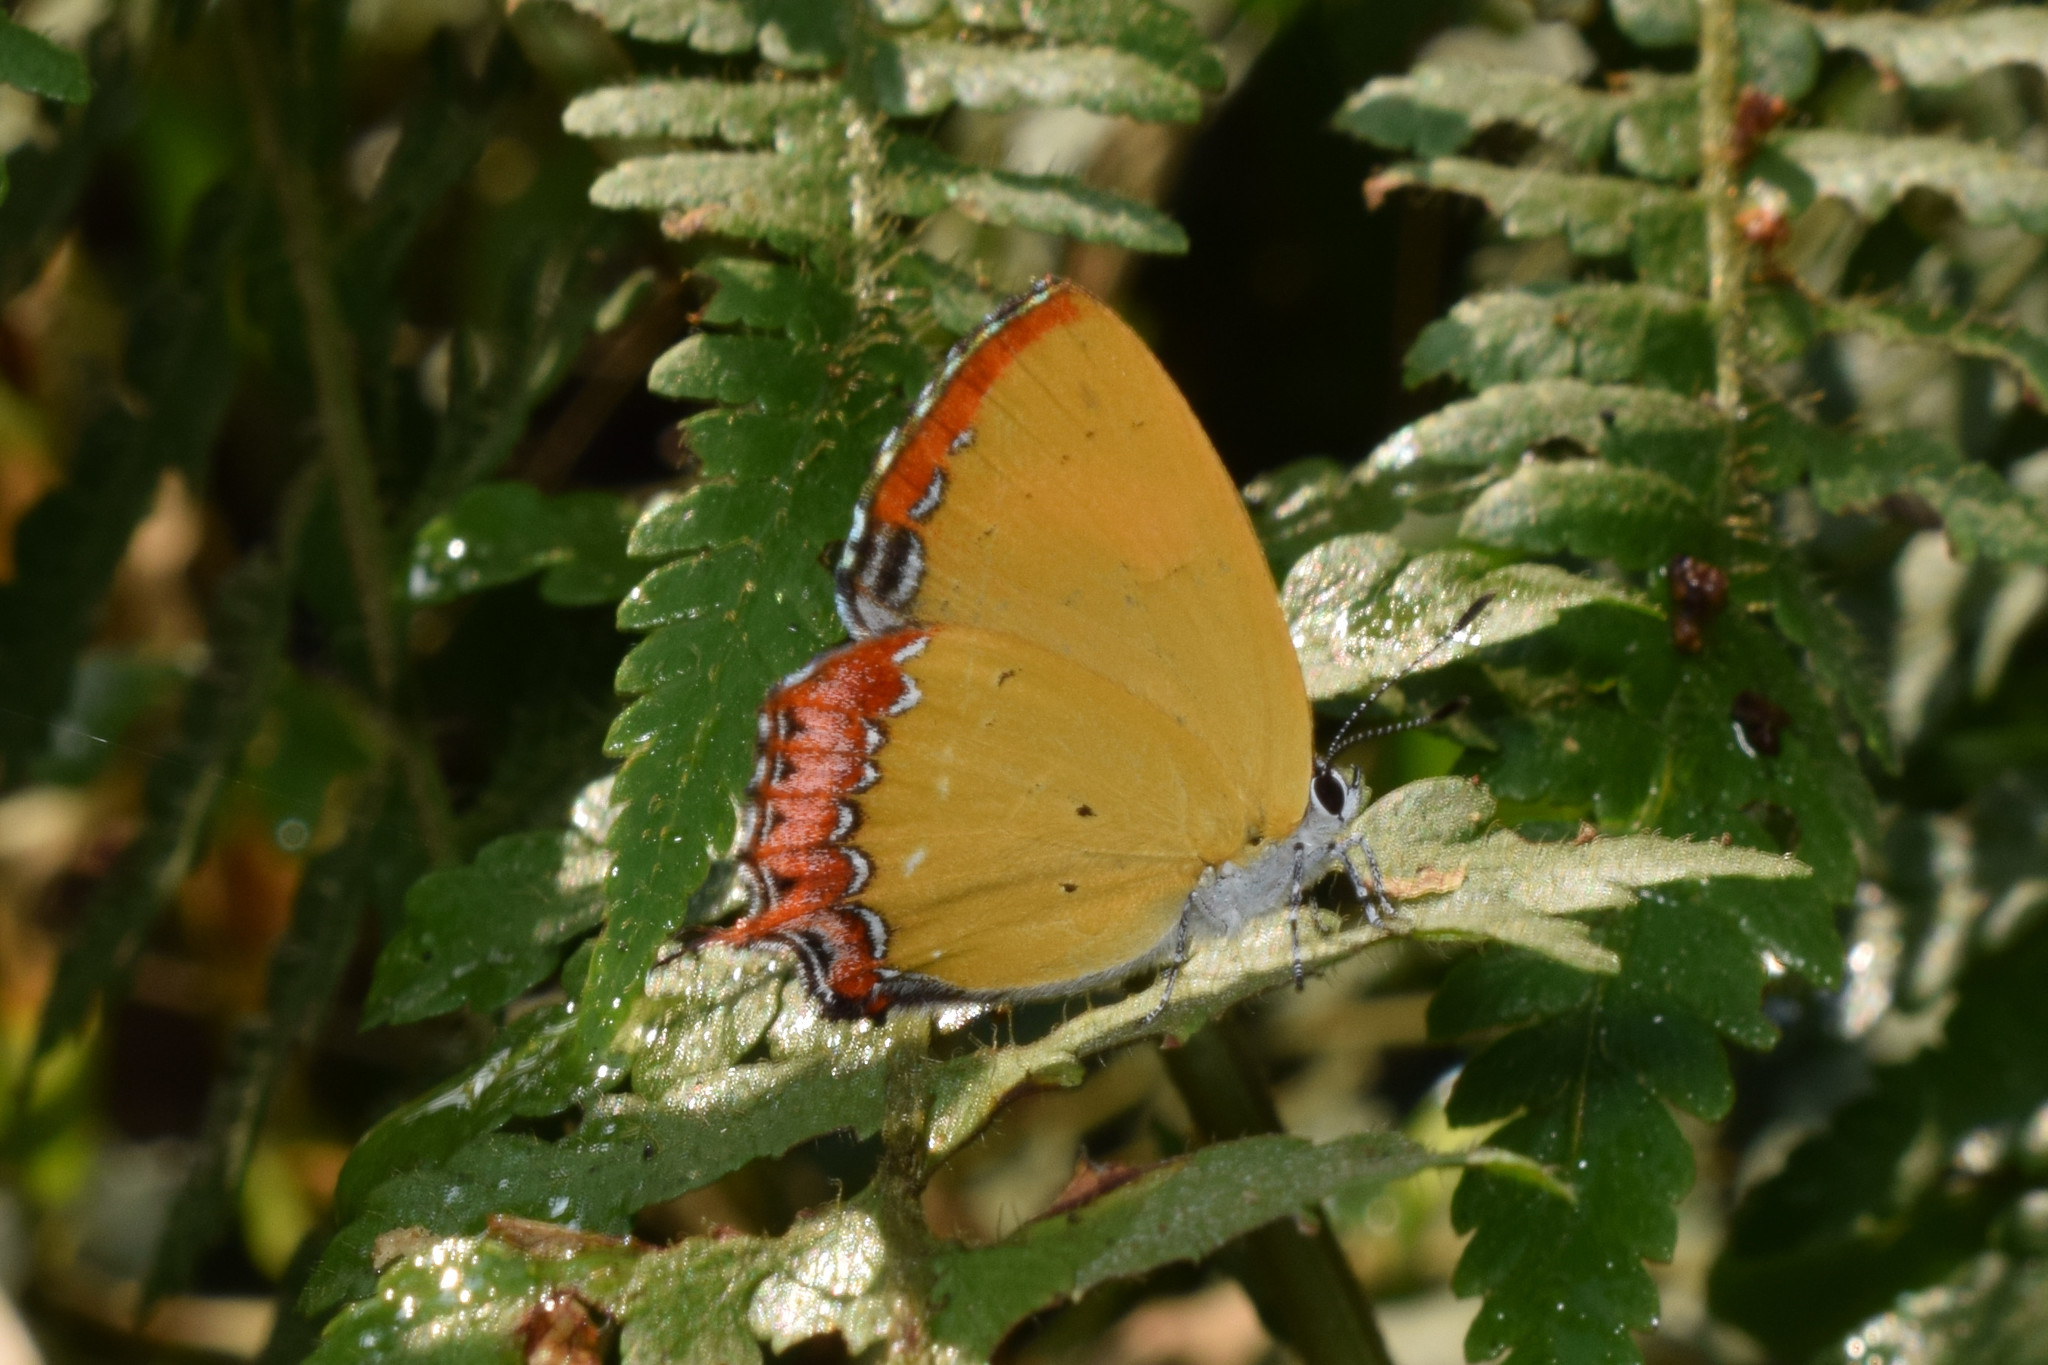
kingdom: Animalia
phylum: Arthropoda
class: Insecta
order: Lepidoptera
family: Lycaenidae
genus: Heliophorus
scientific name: Heliophorus brahma
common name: Golden sapphire
